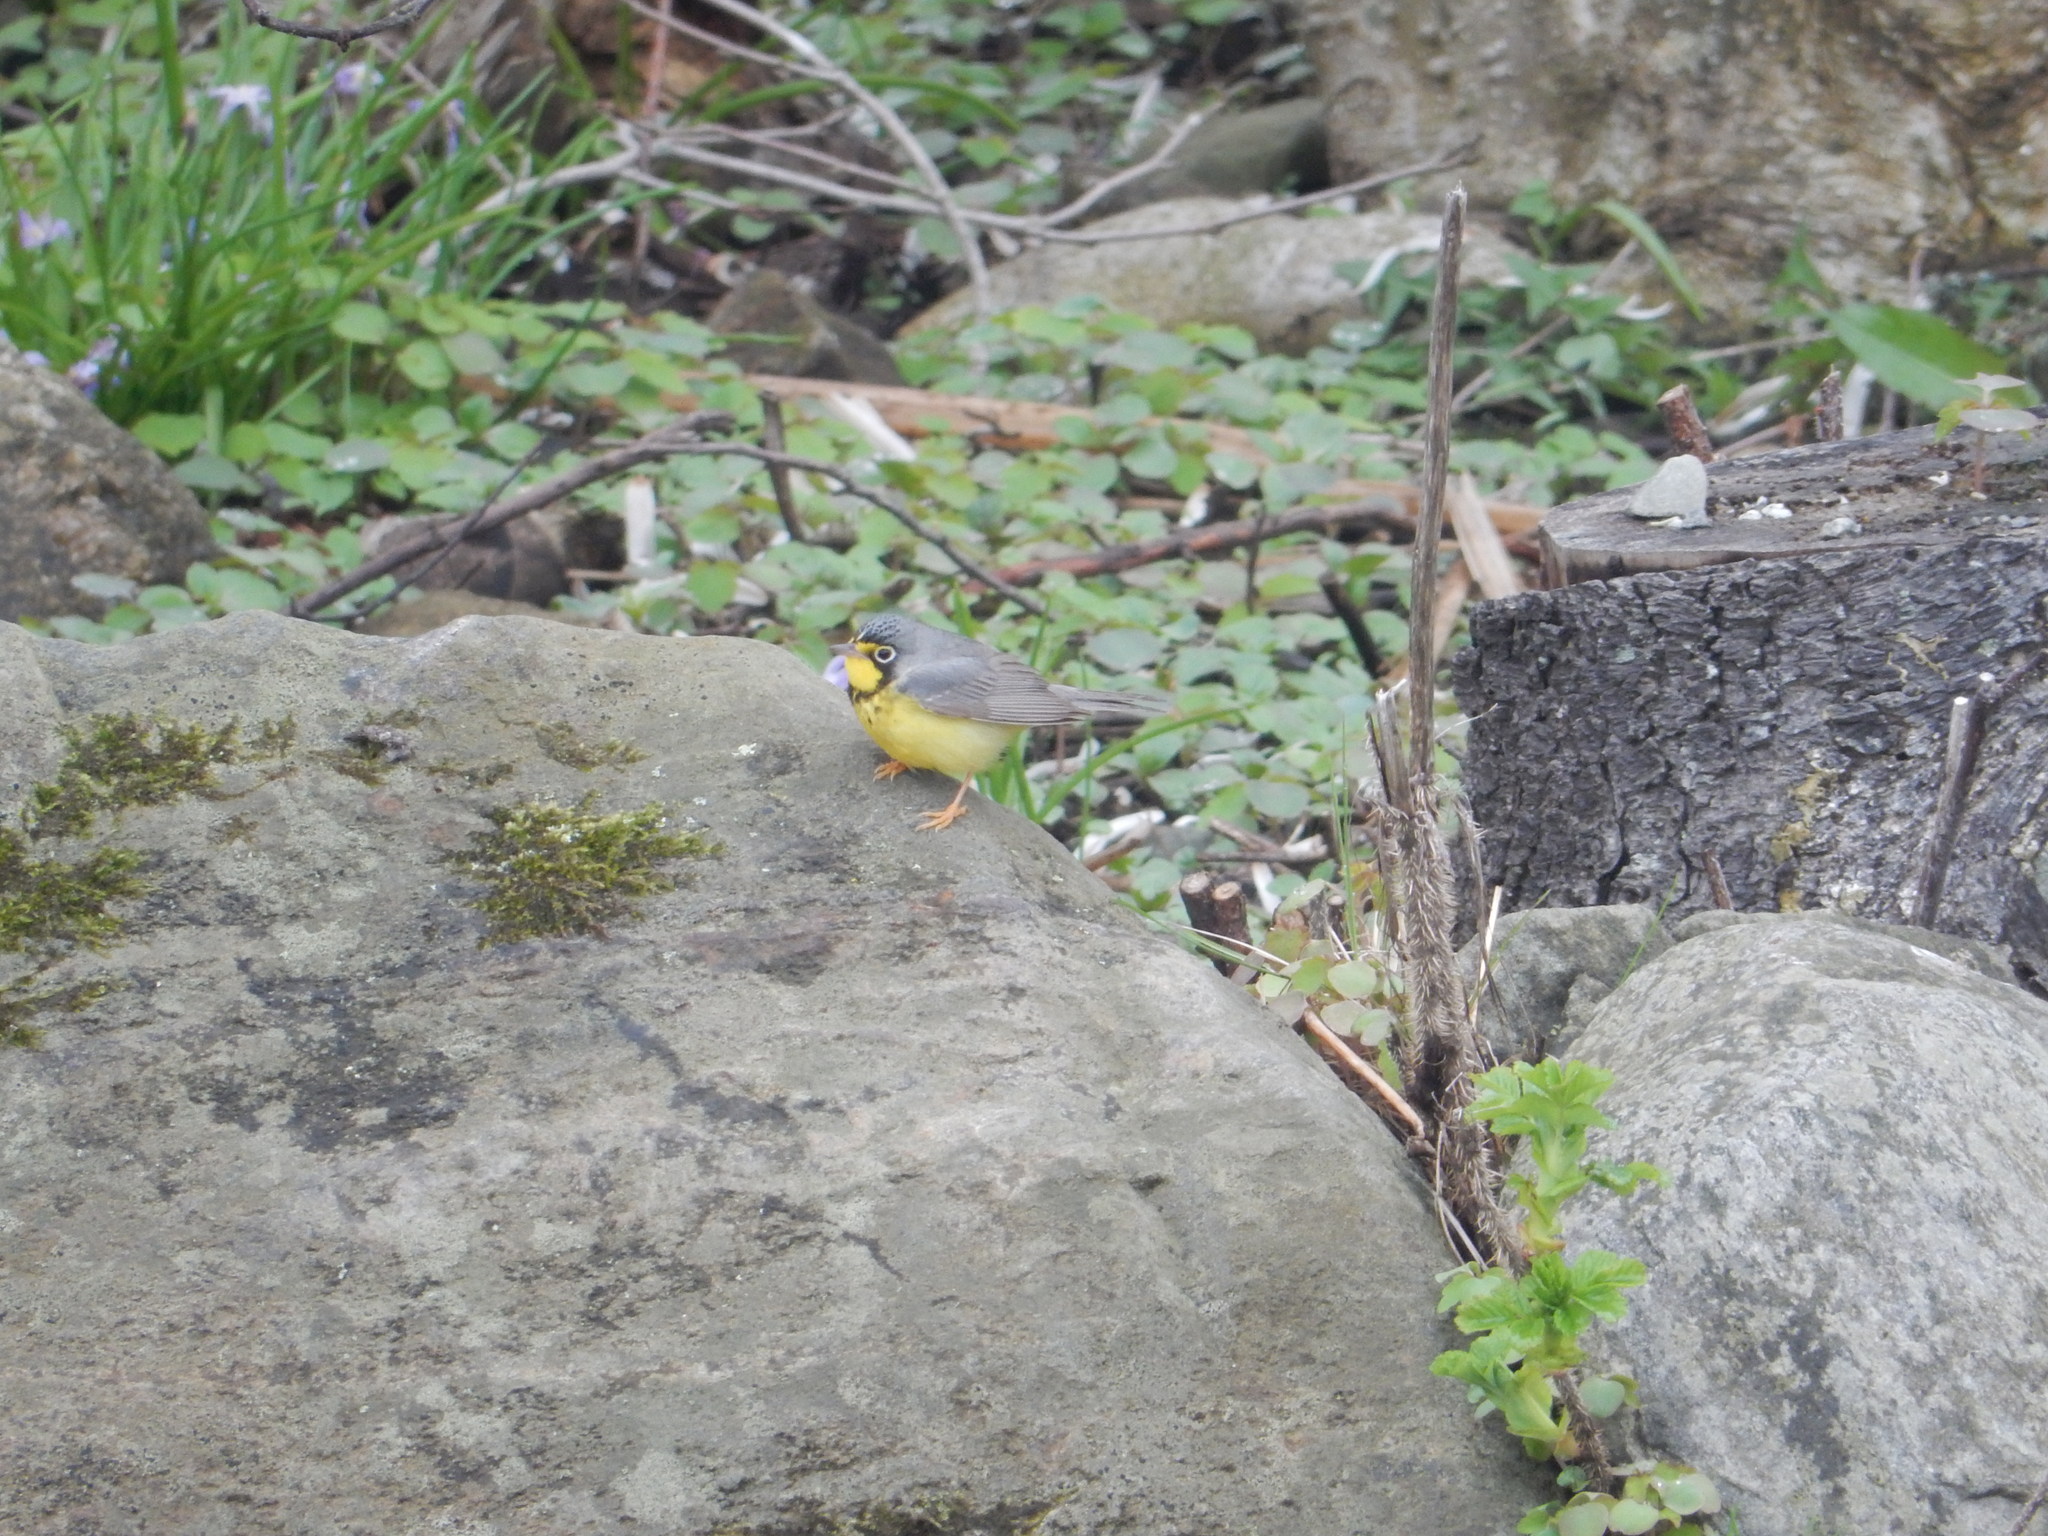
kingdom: Animalia
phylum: Chordata
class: Aves
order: Passeriformes
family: Parulidae
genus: Cardellina
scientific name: Cardellina canadensis
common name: Canada warbler
